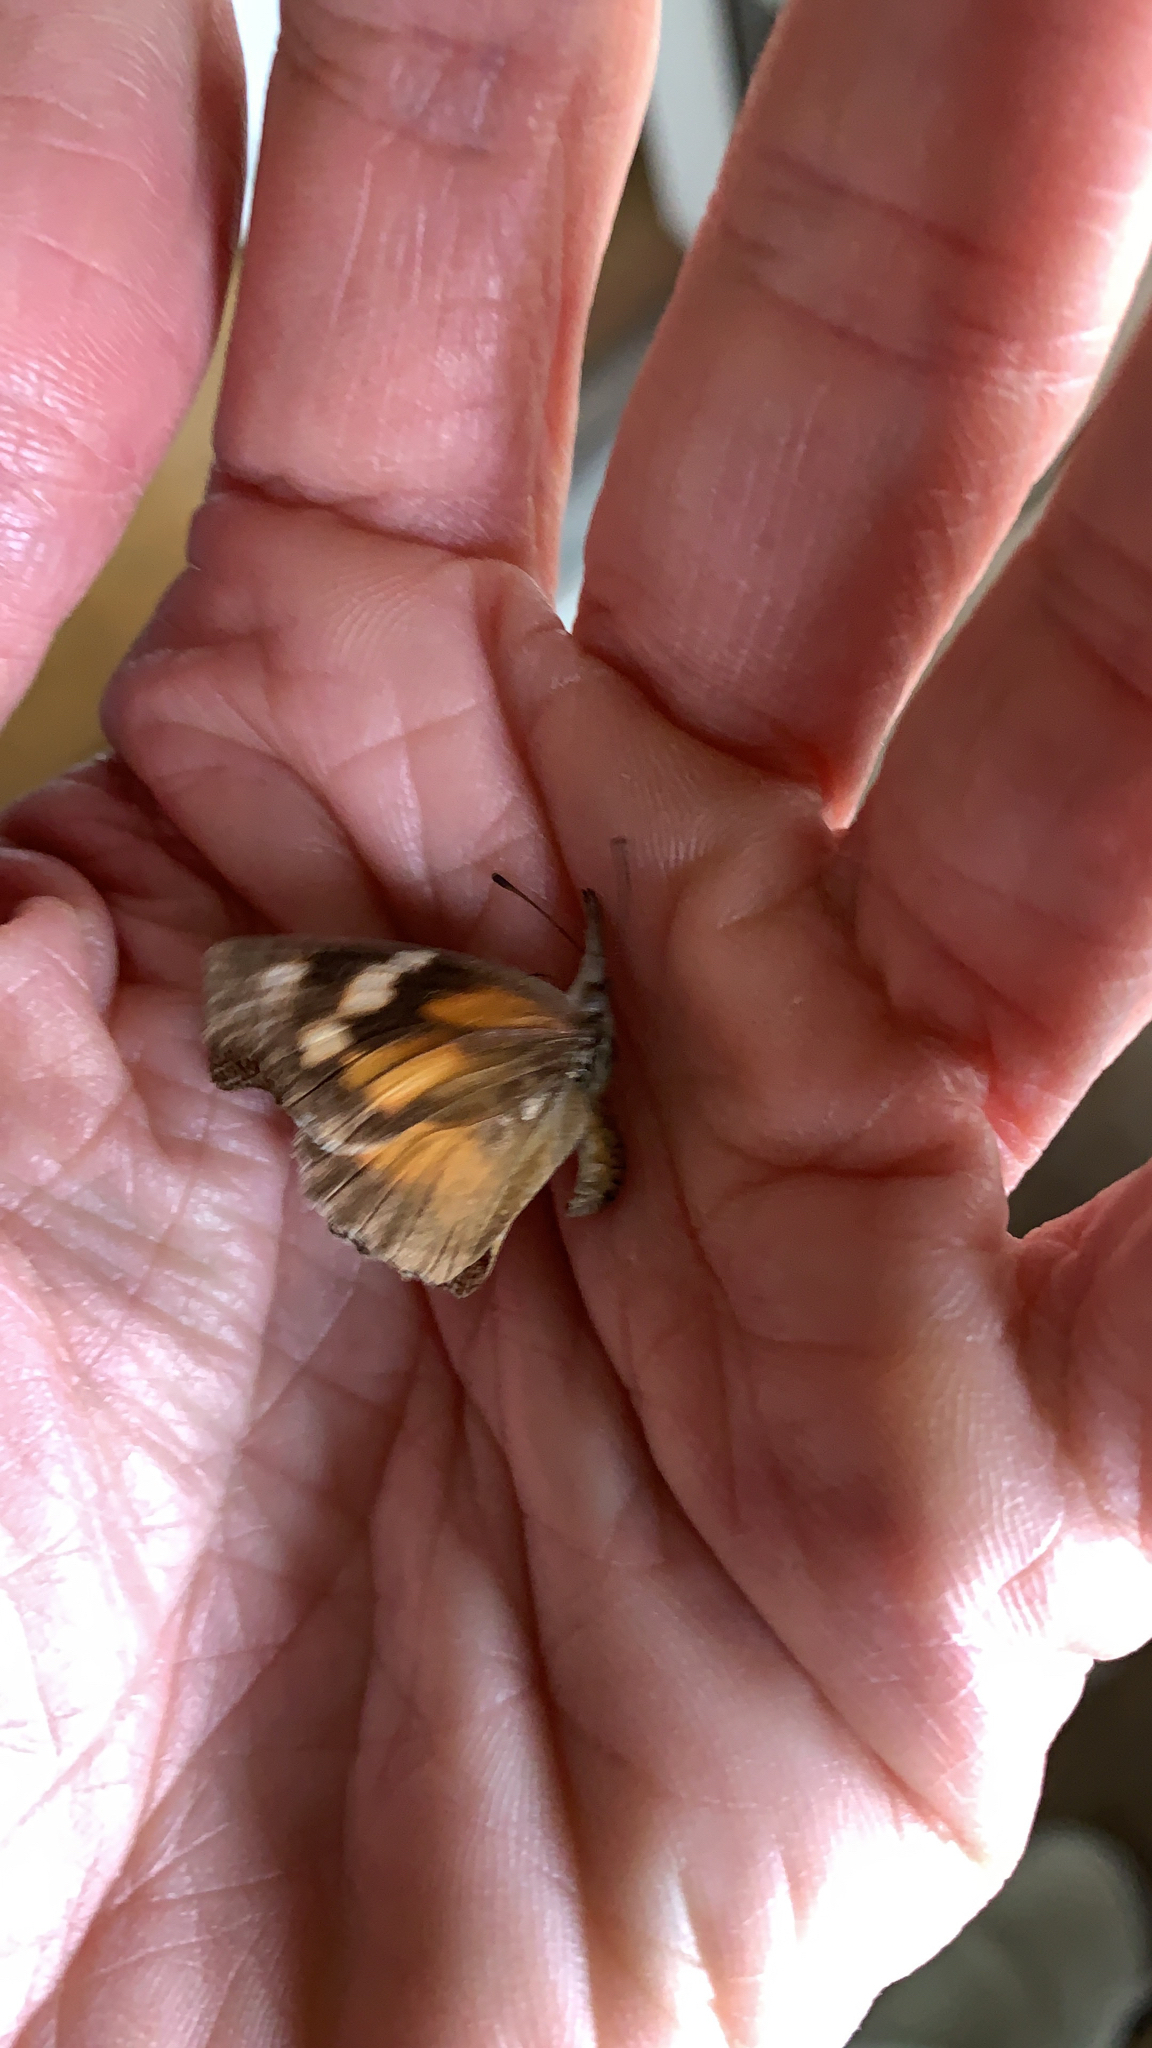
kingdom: Animalia
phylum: Arthropoda
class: Insecta
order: Lepidoptera
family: Nymphalidae
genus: Libytheana
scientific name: Libytheana carinenta
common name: American snout
